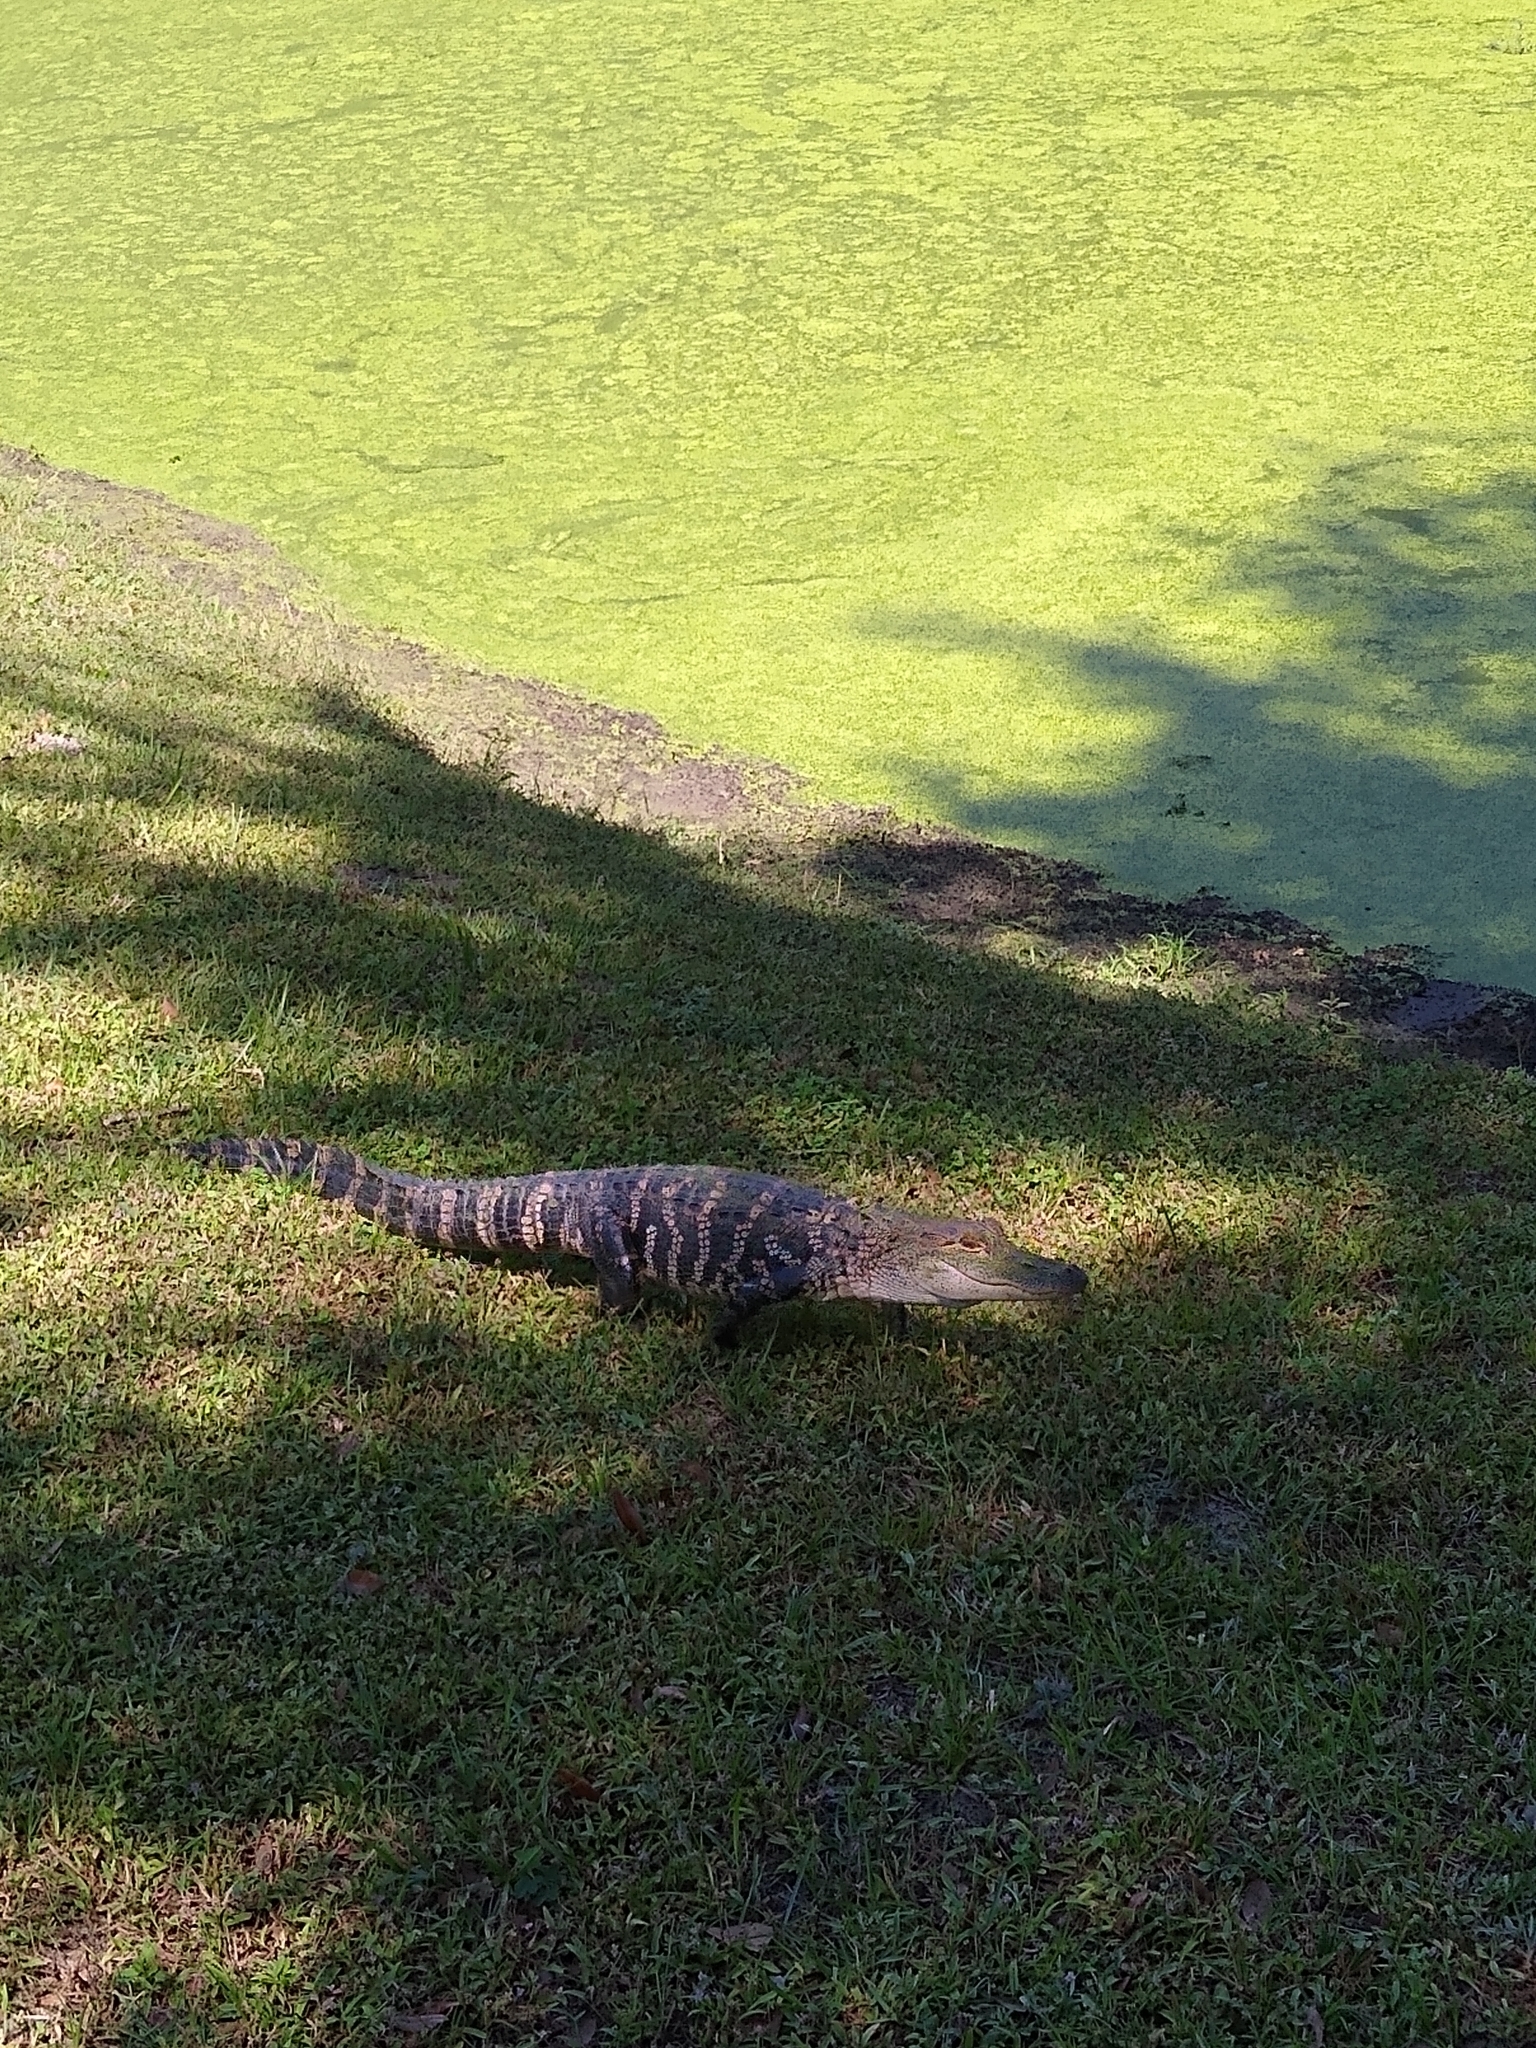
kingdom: Animalia
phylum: Chordata
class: Crocodylia
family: Alligatoridae
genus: Alligator
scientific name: Alligator mississippiensis
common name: American alligator
